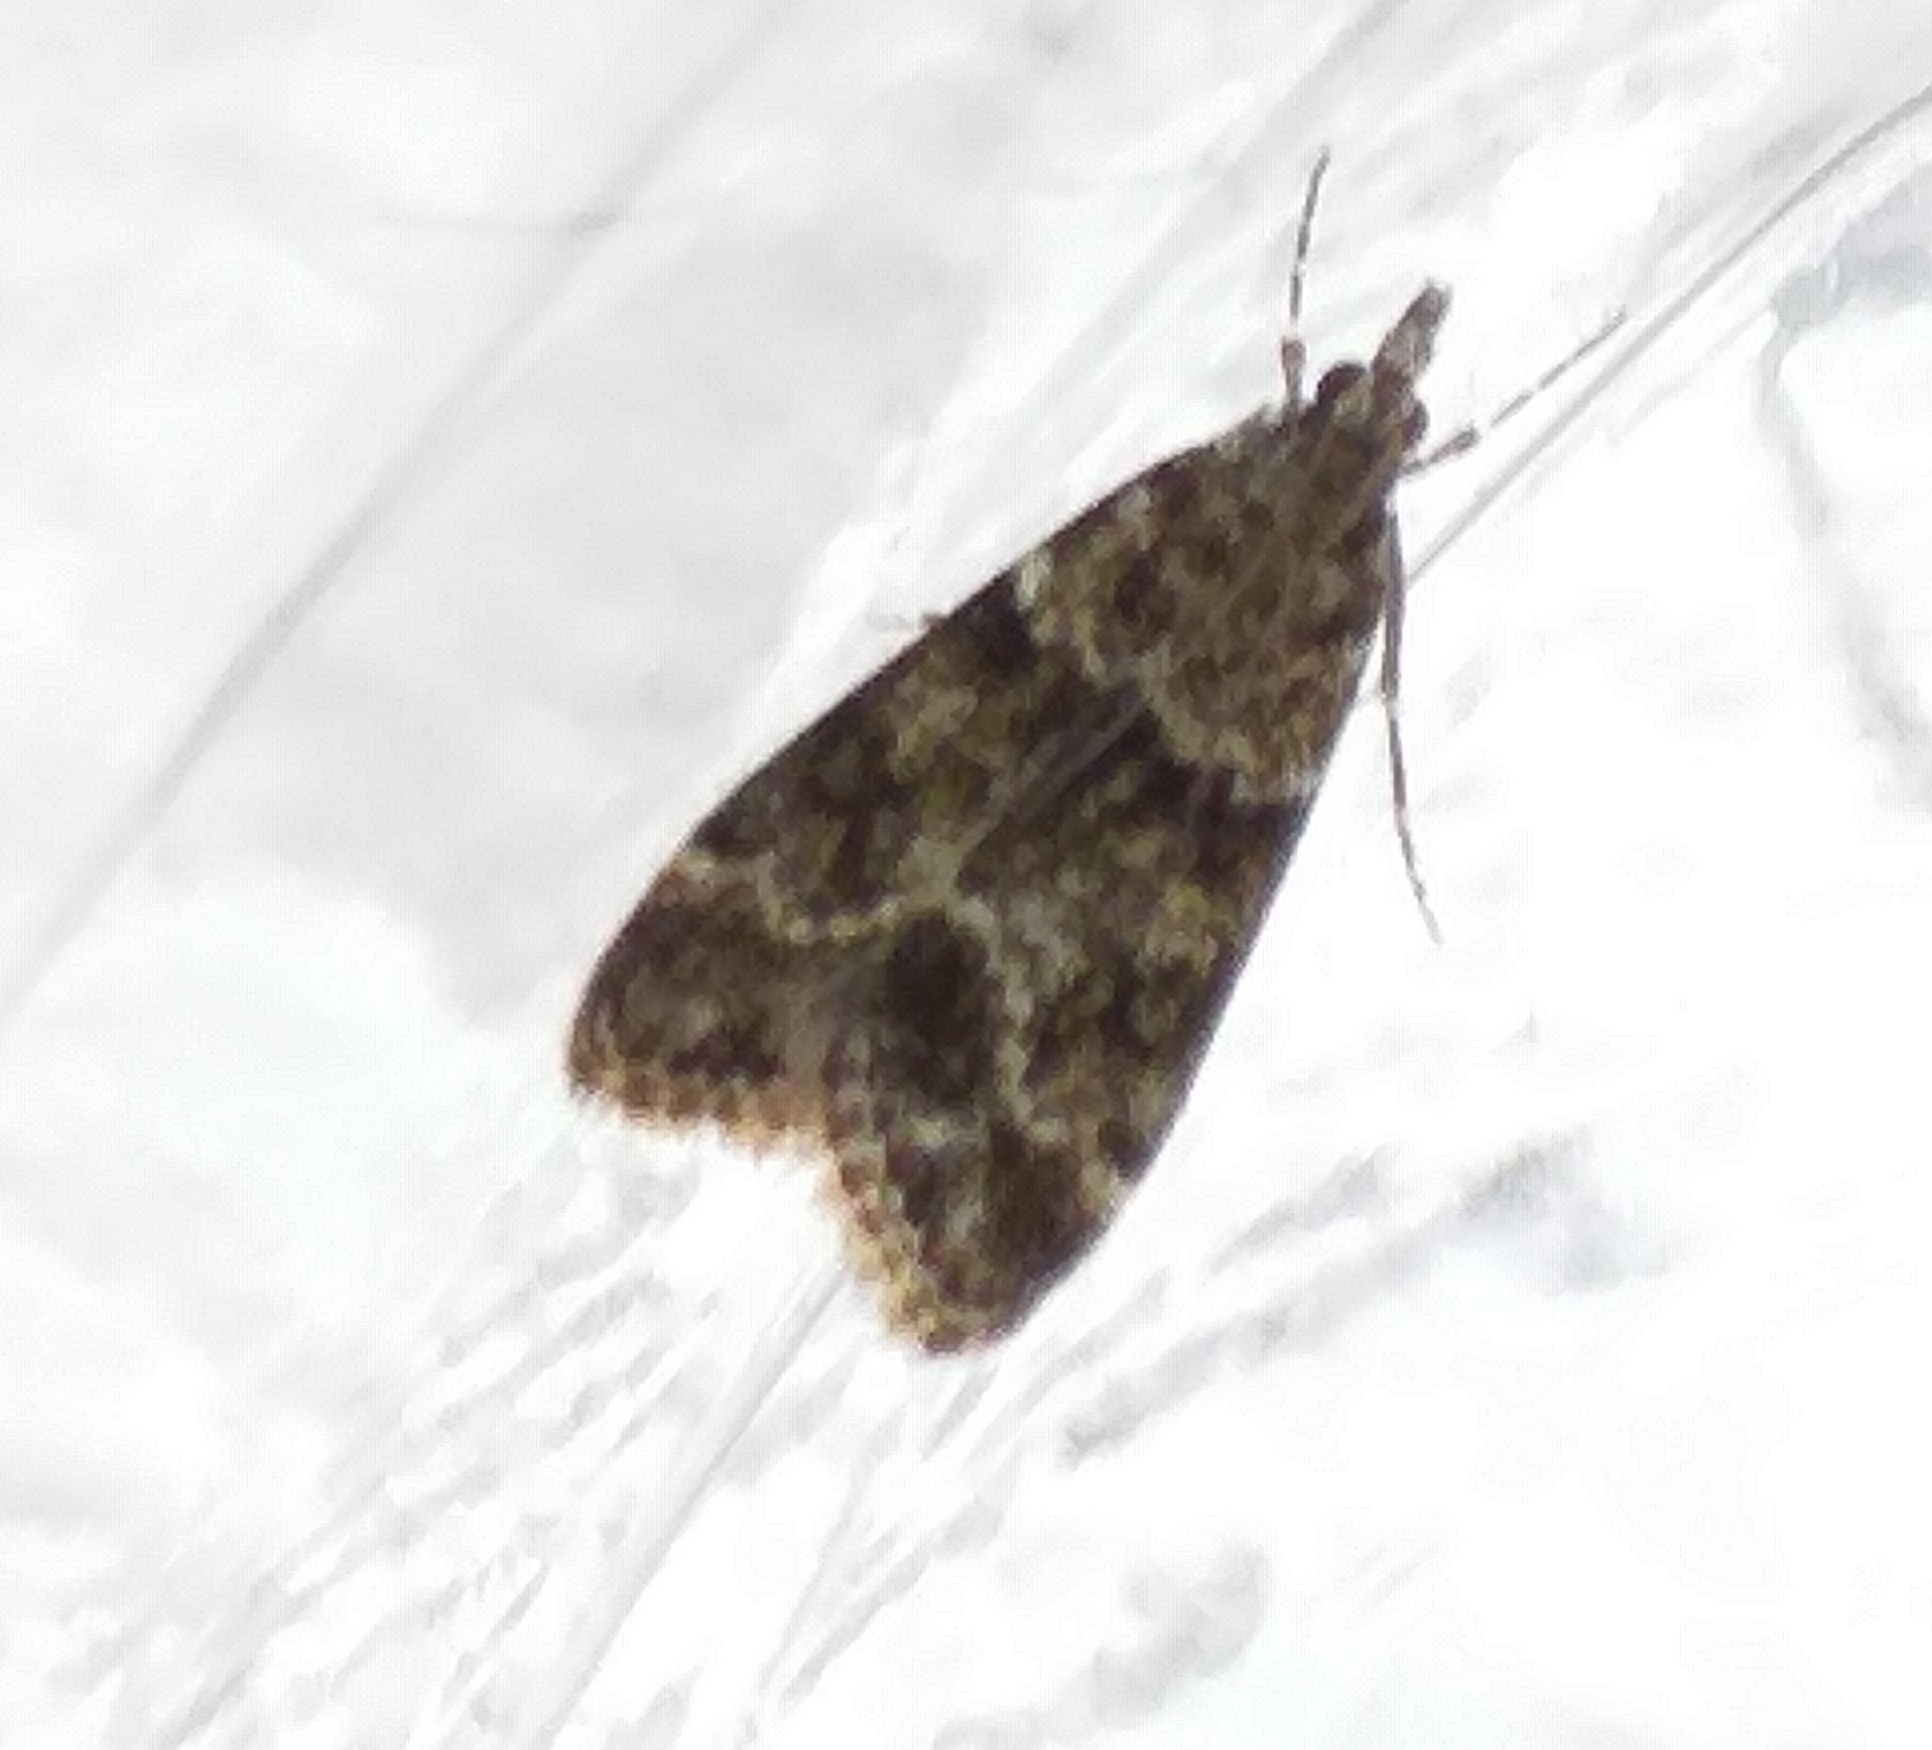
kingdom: Animalia
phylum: Arthropoda
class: Insecta
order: Lepidoptera
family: Crambidae
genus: Eudonia
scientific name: Eudonia mercurella
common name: Small grey
